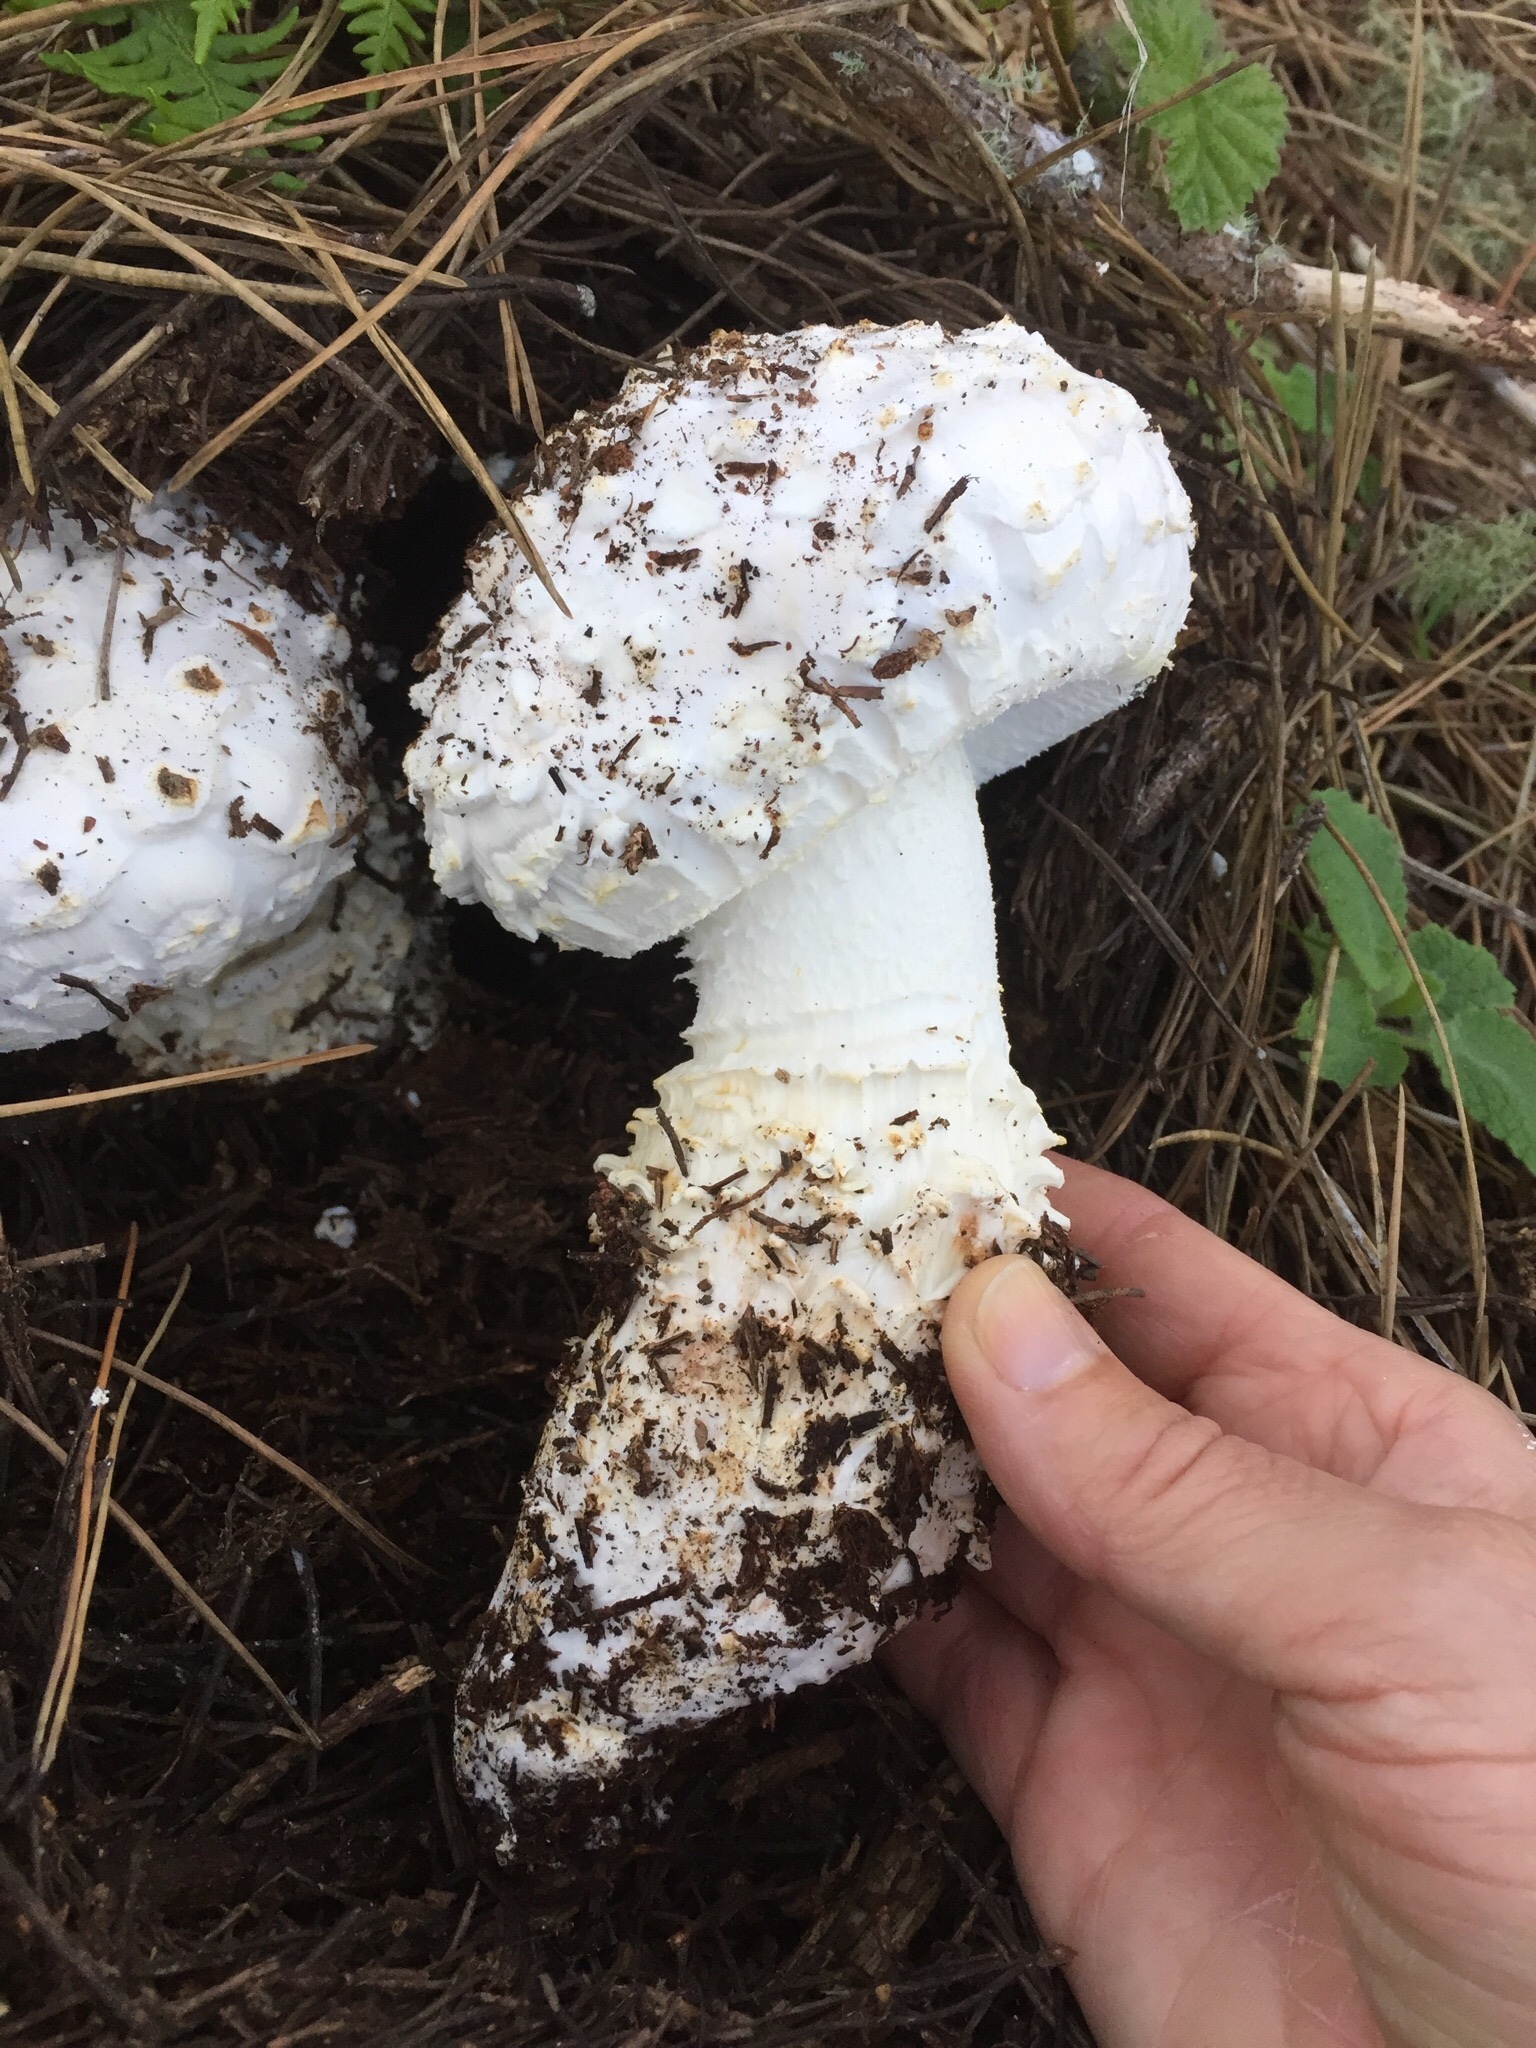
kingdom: Fungi
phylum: Basidiomycota
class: Agaricomycetes
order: Agaricales
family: Amanitaceae
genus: Amanita
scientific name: Amanita magniverrucata
